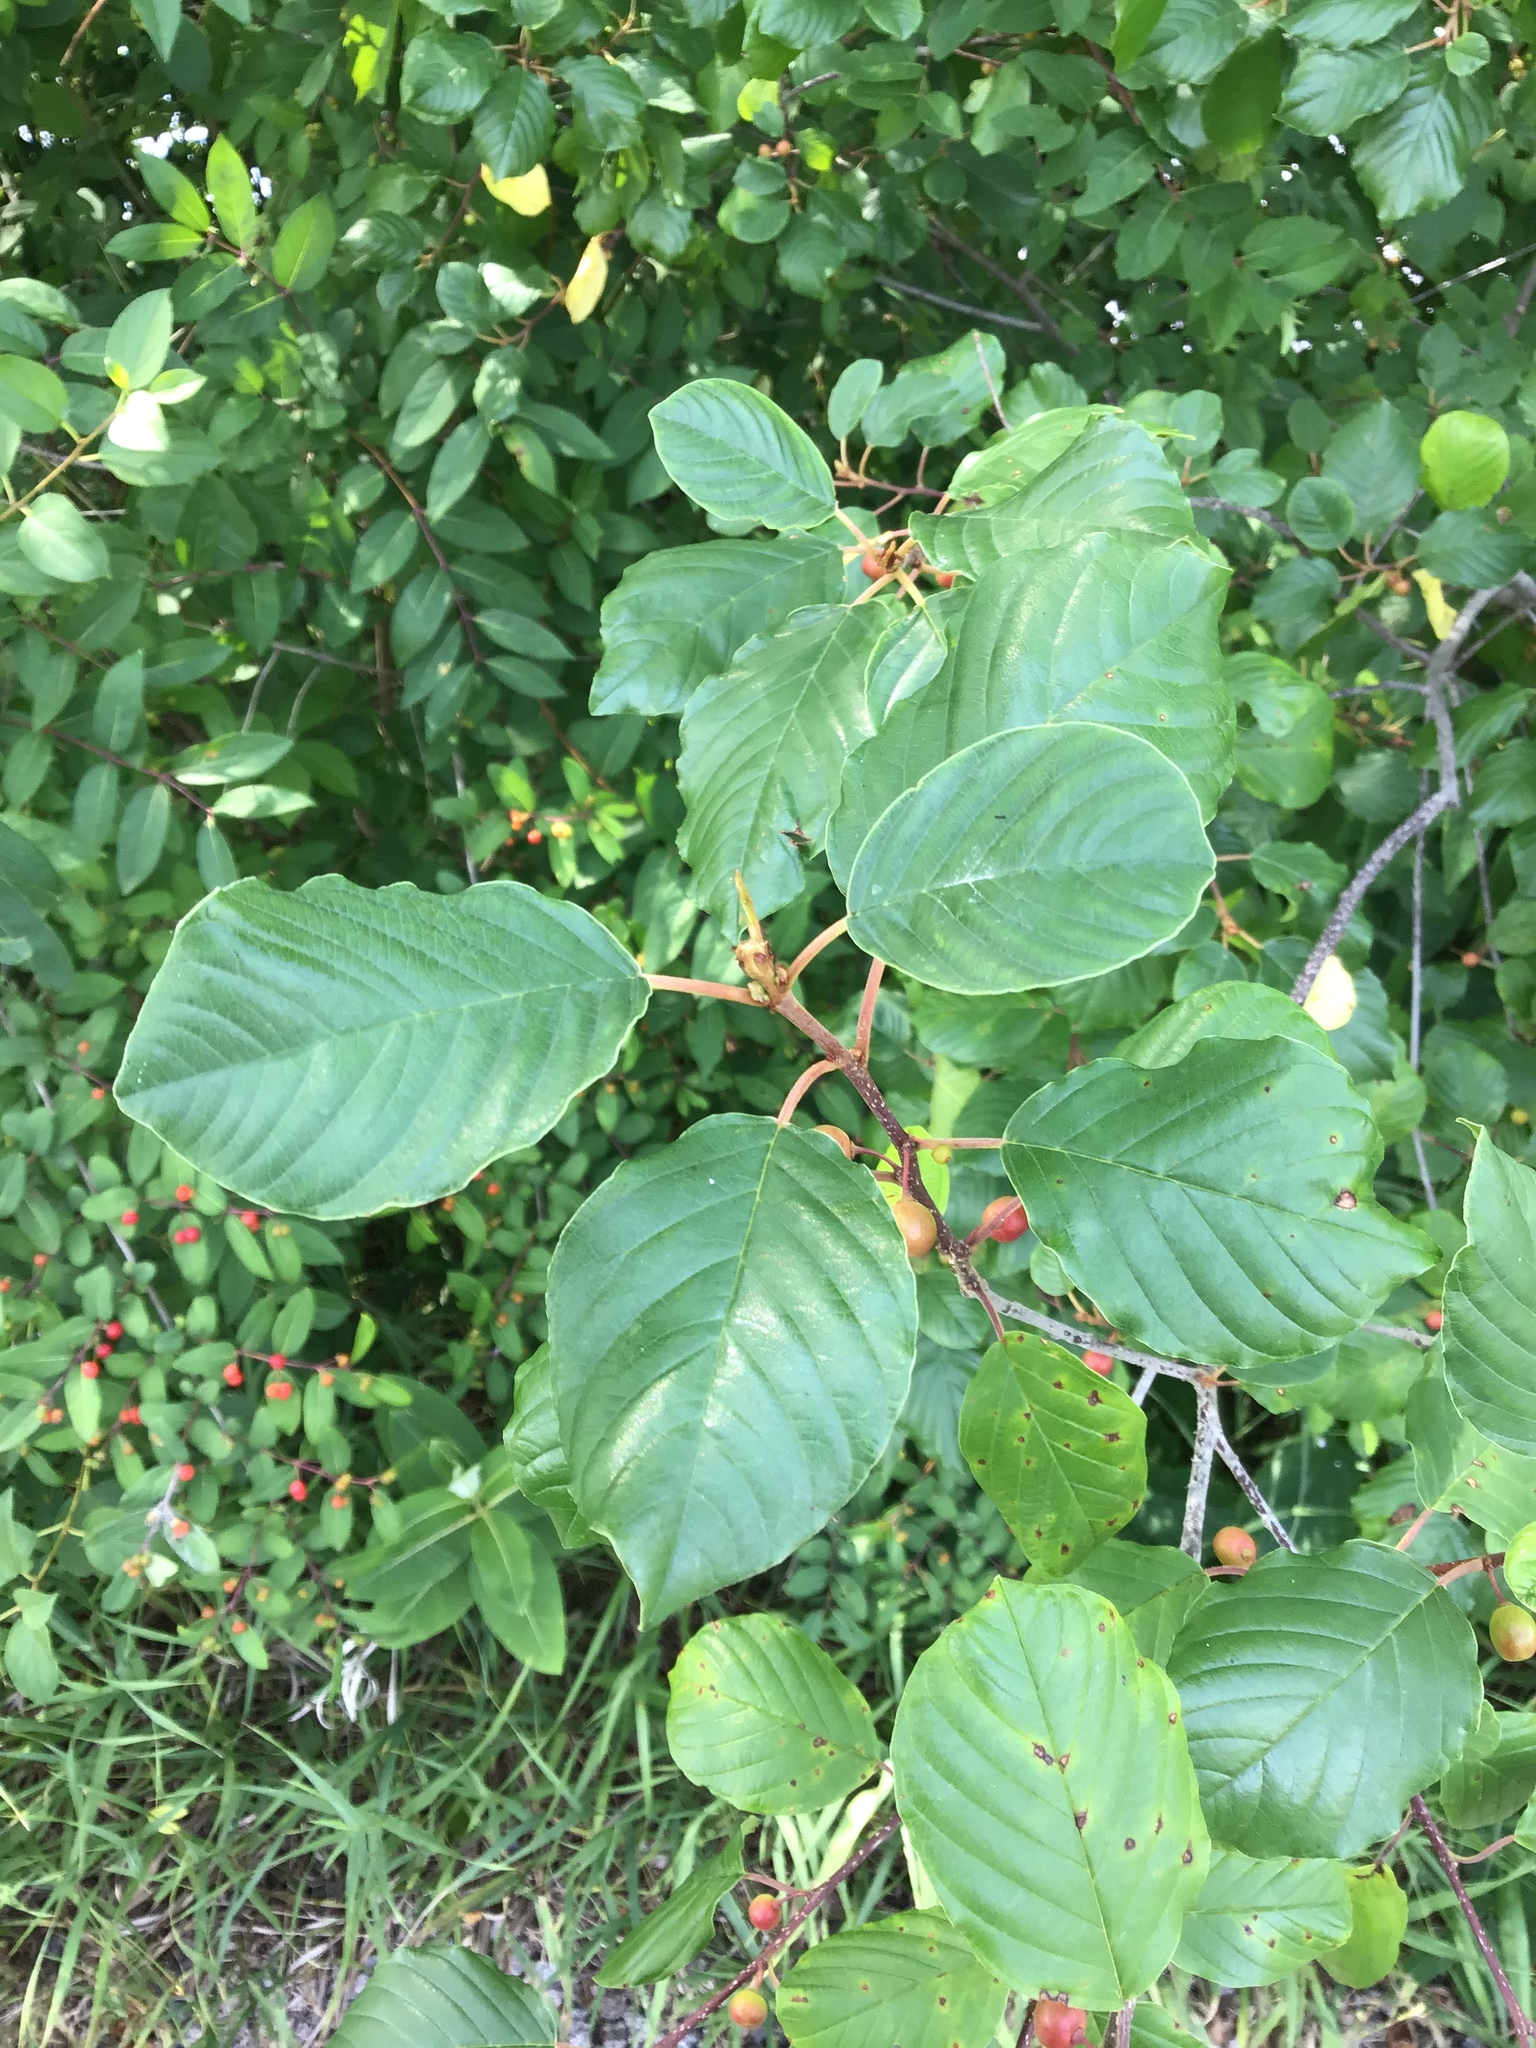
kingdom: Plantae
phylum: Tracheophyta
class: Magnoliopsida
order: Rosales
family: Rhamnaceae
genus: Frangula
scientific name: Frangula alnus
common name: Alder buckthorn
